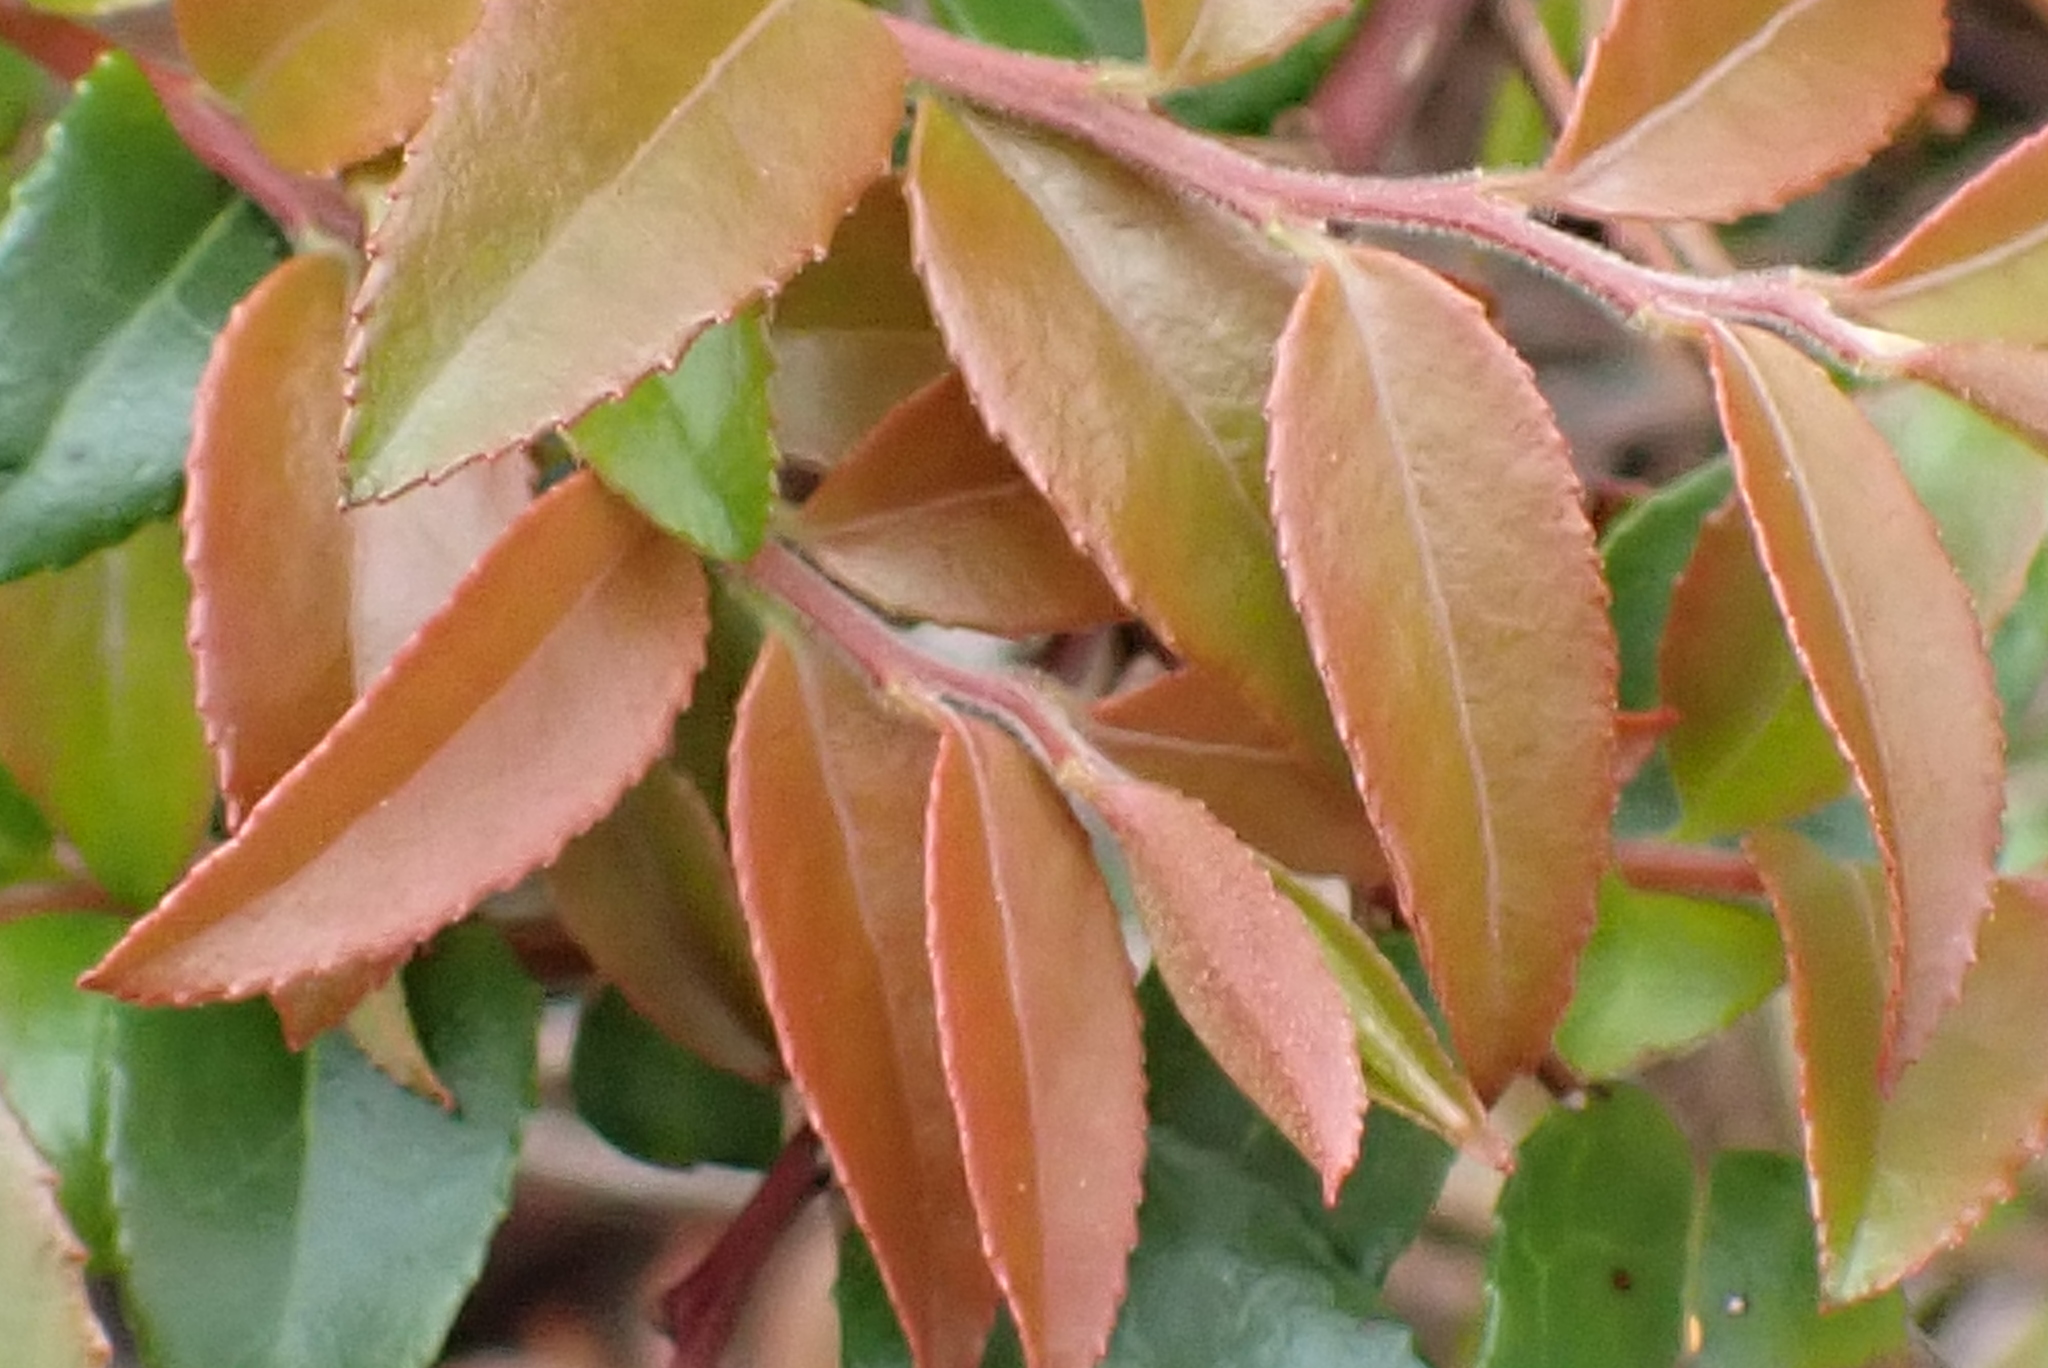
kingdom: Plantae
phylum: Tracheophyta
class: Magnoliopsida
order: Ericales
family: Ericaceae
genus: Vaccinium
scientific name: Vaccinium ovatum
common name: California-huckleberry
